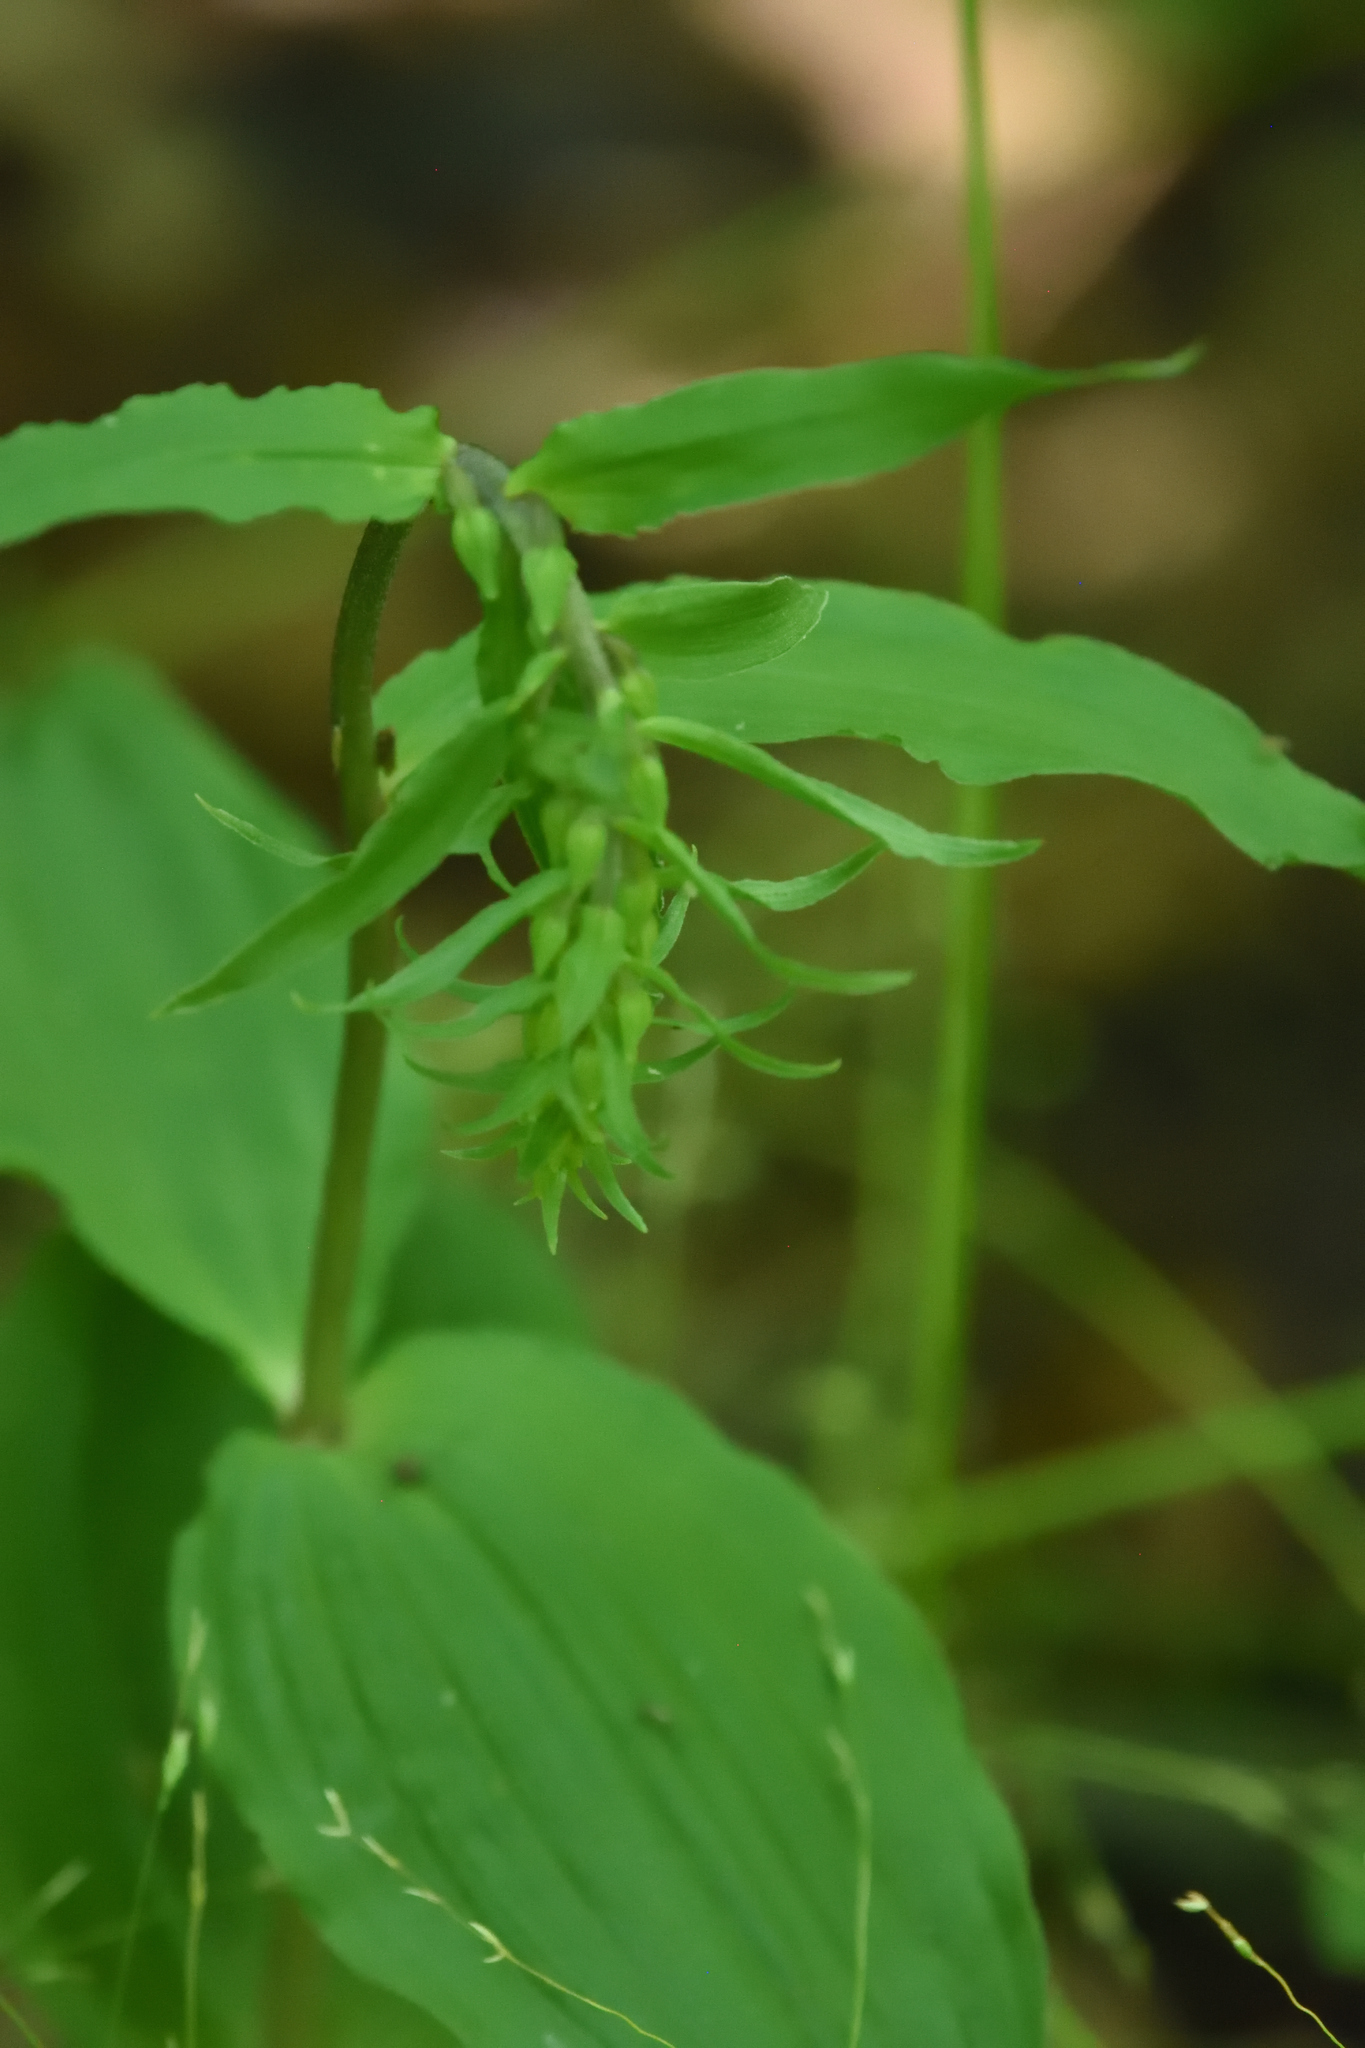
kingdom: Plantae
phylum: Tracheophyta
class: Liliopsida
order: Asparagales
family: Orchidaceae
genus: Epipactis
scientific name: Epipactis helleborine
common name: Broad-leaved helleborine
